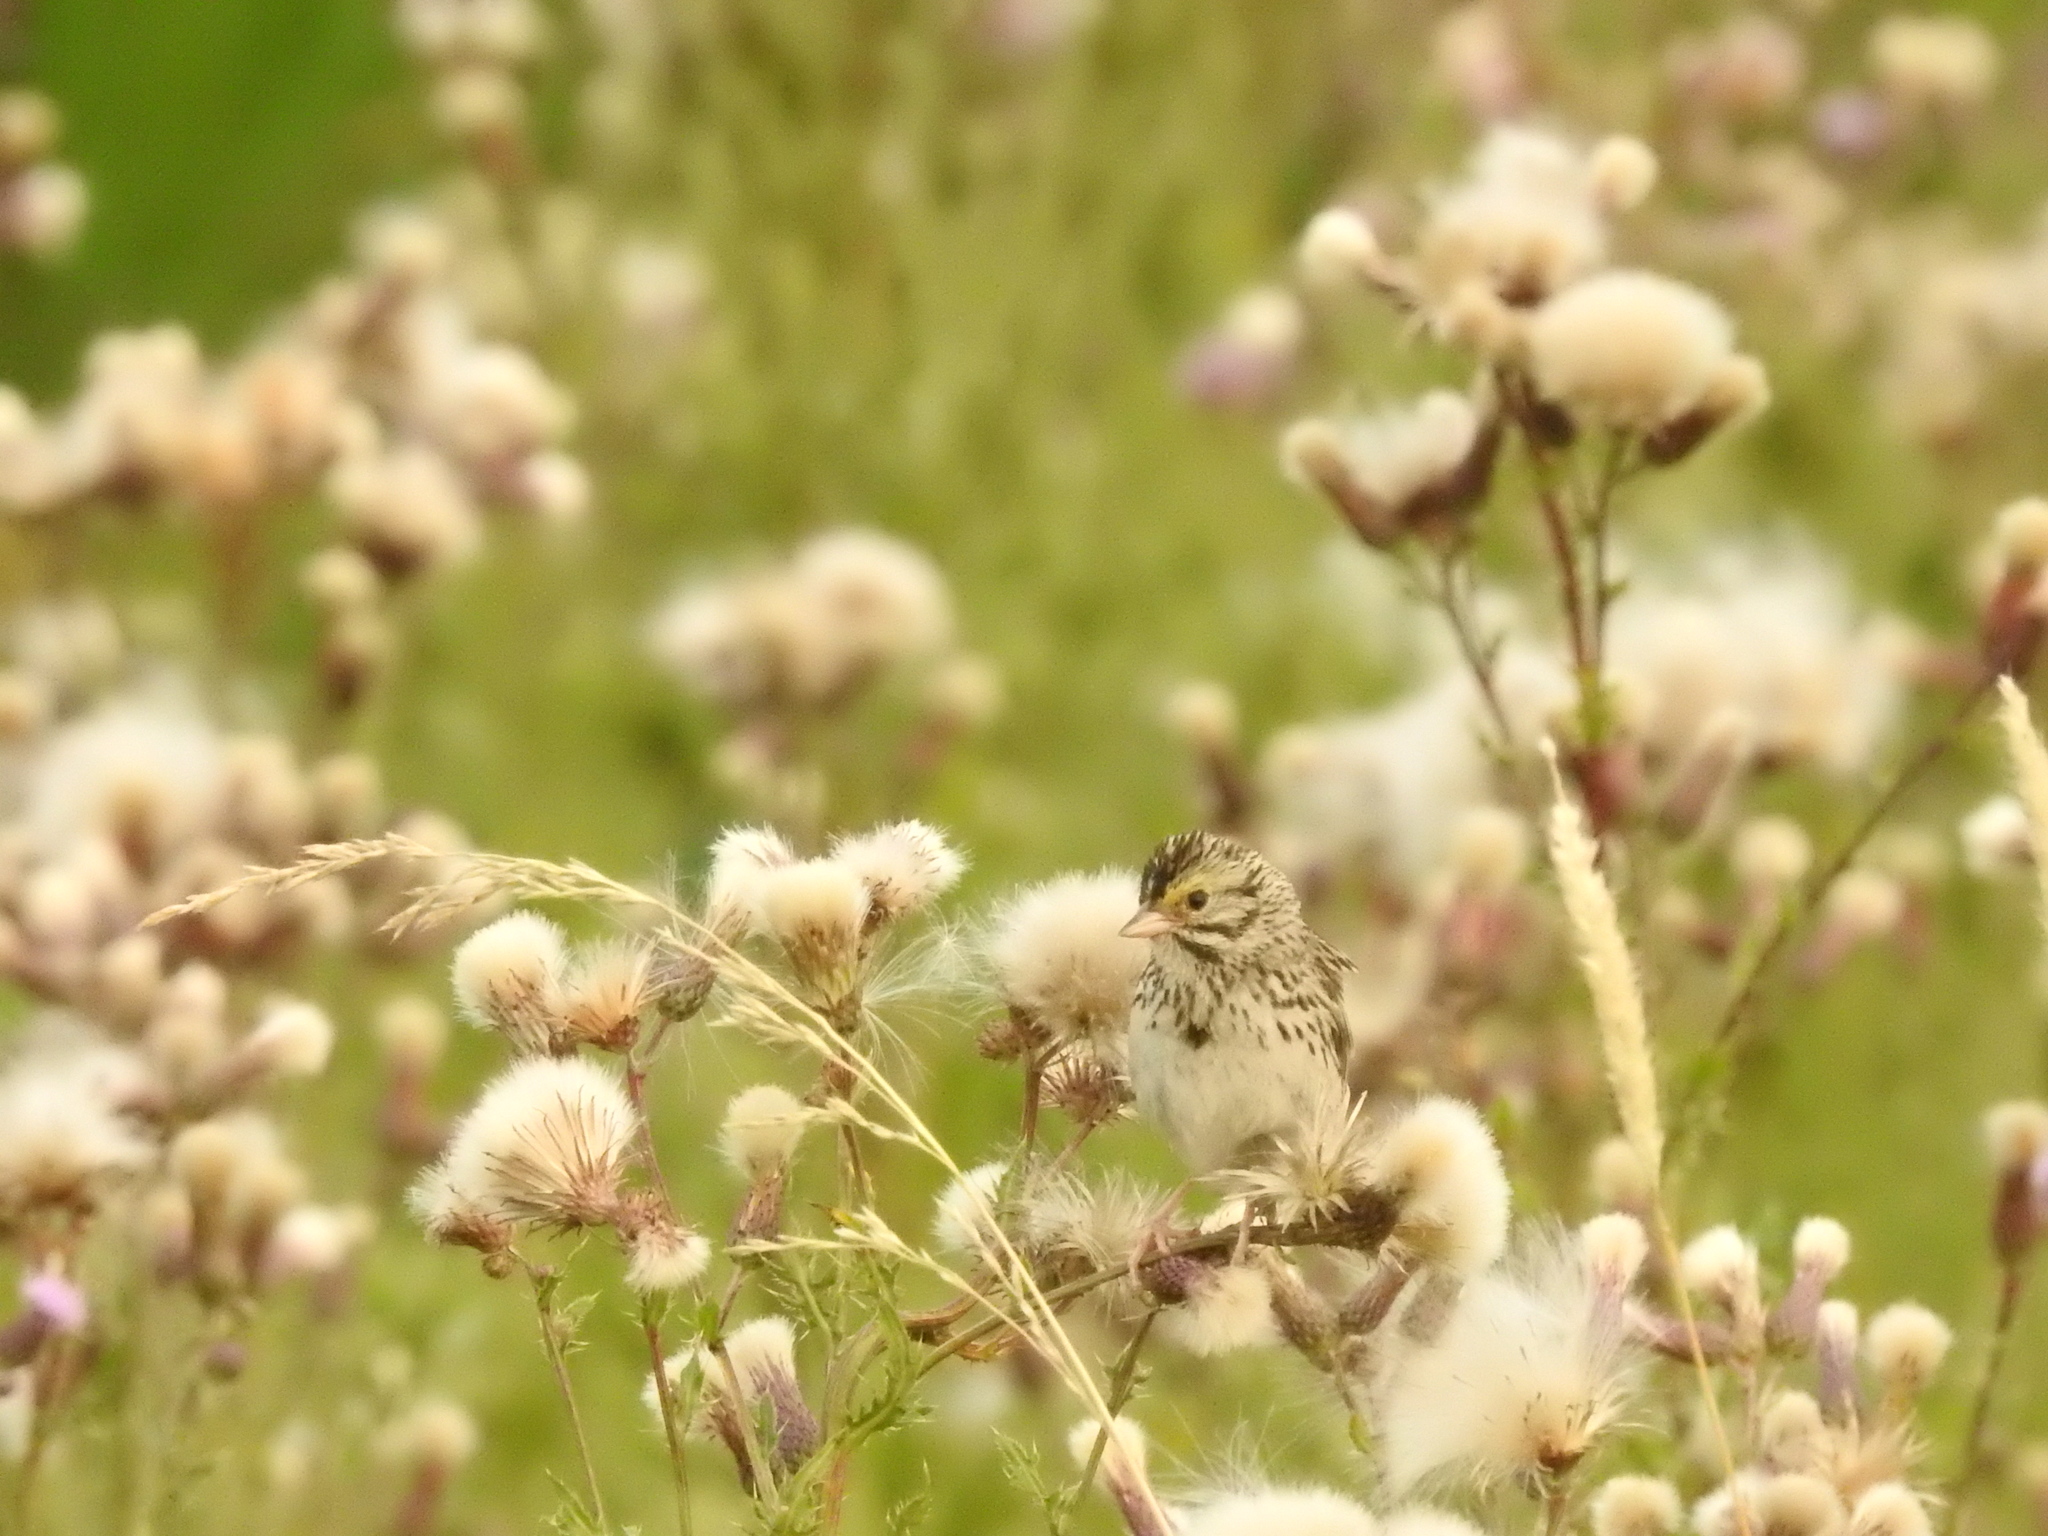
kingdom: Animalia
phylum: Chordata
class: Aves
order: Passeriformes
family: Passerellidae
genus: Passerculus
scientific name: Passerculus sandwichensis
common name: Savannah sparrow
